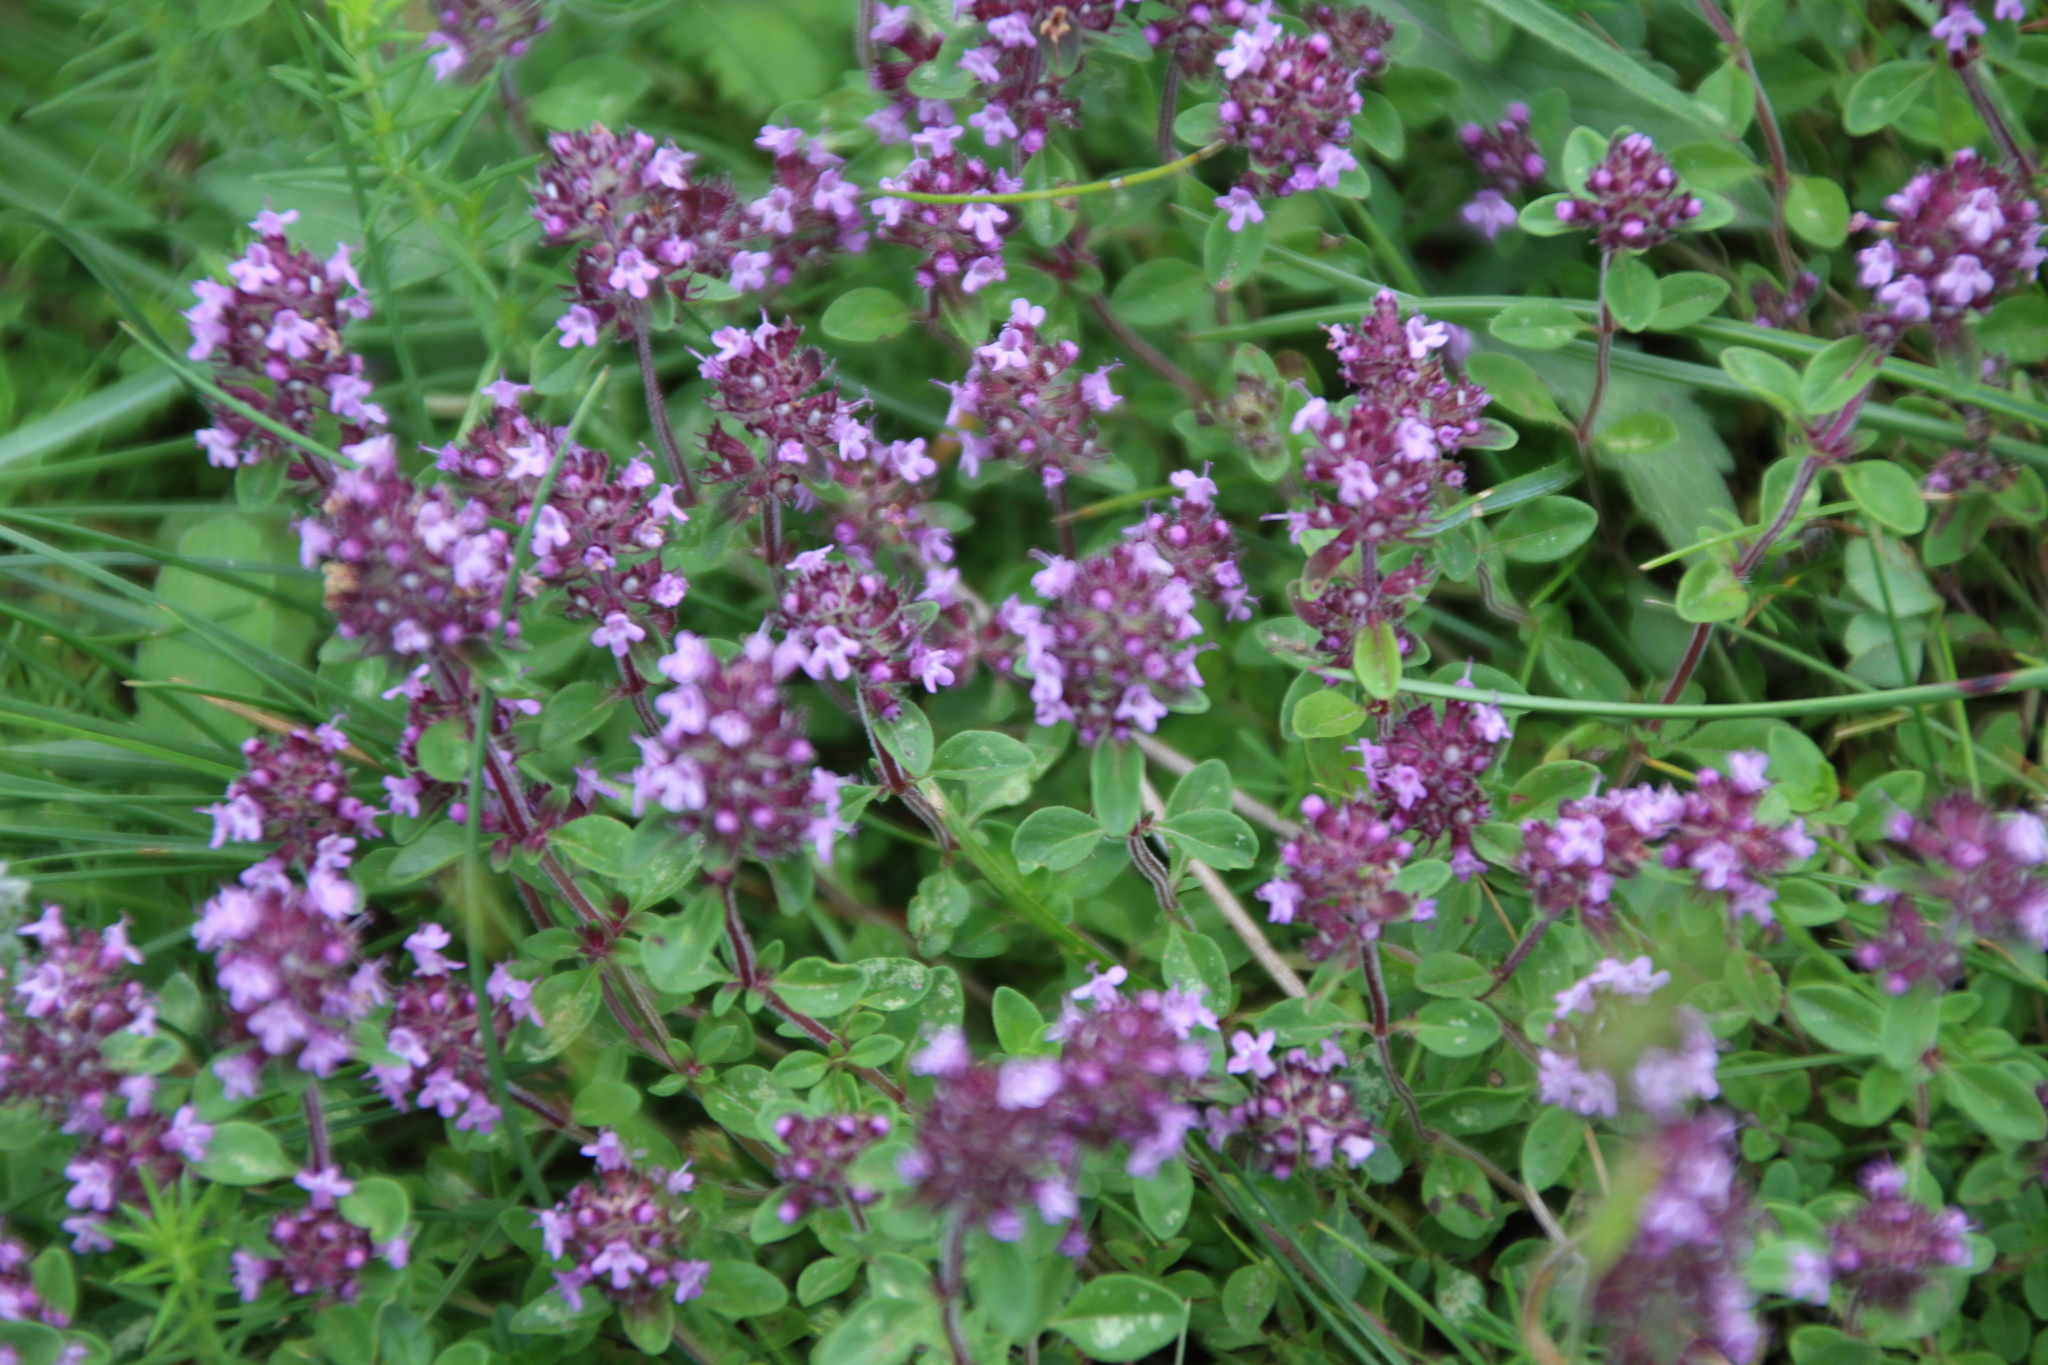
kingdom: Plantae
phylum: Tracheophyta
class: Magnoliopsida
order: Lamiales
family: Lamiaceae
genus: Thymus
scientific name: Thymus pulegioides
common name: Large thyme
